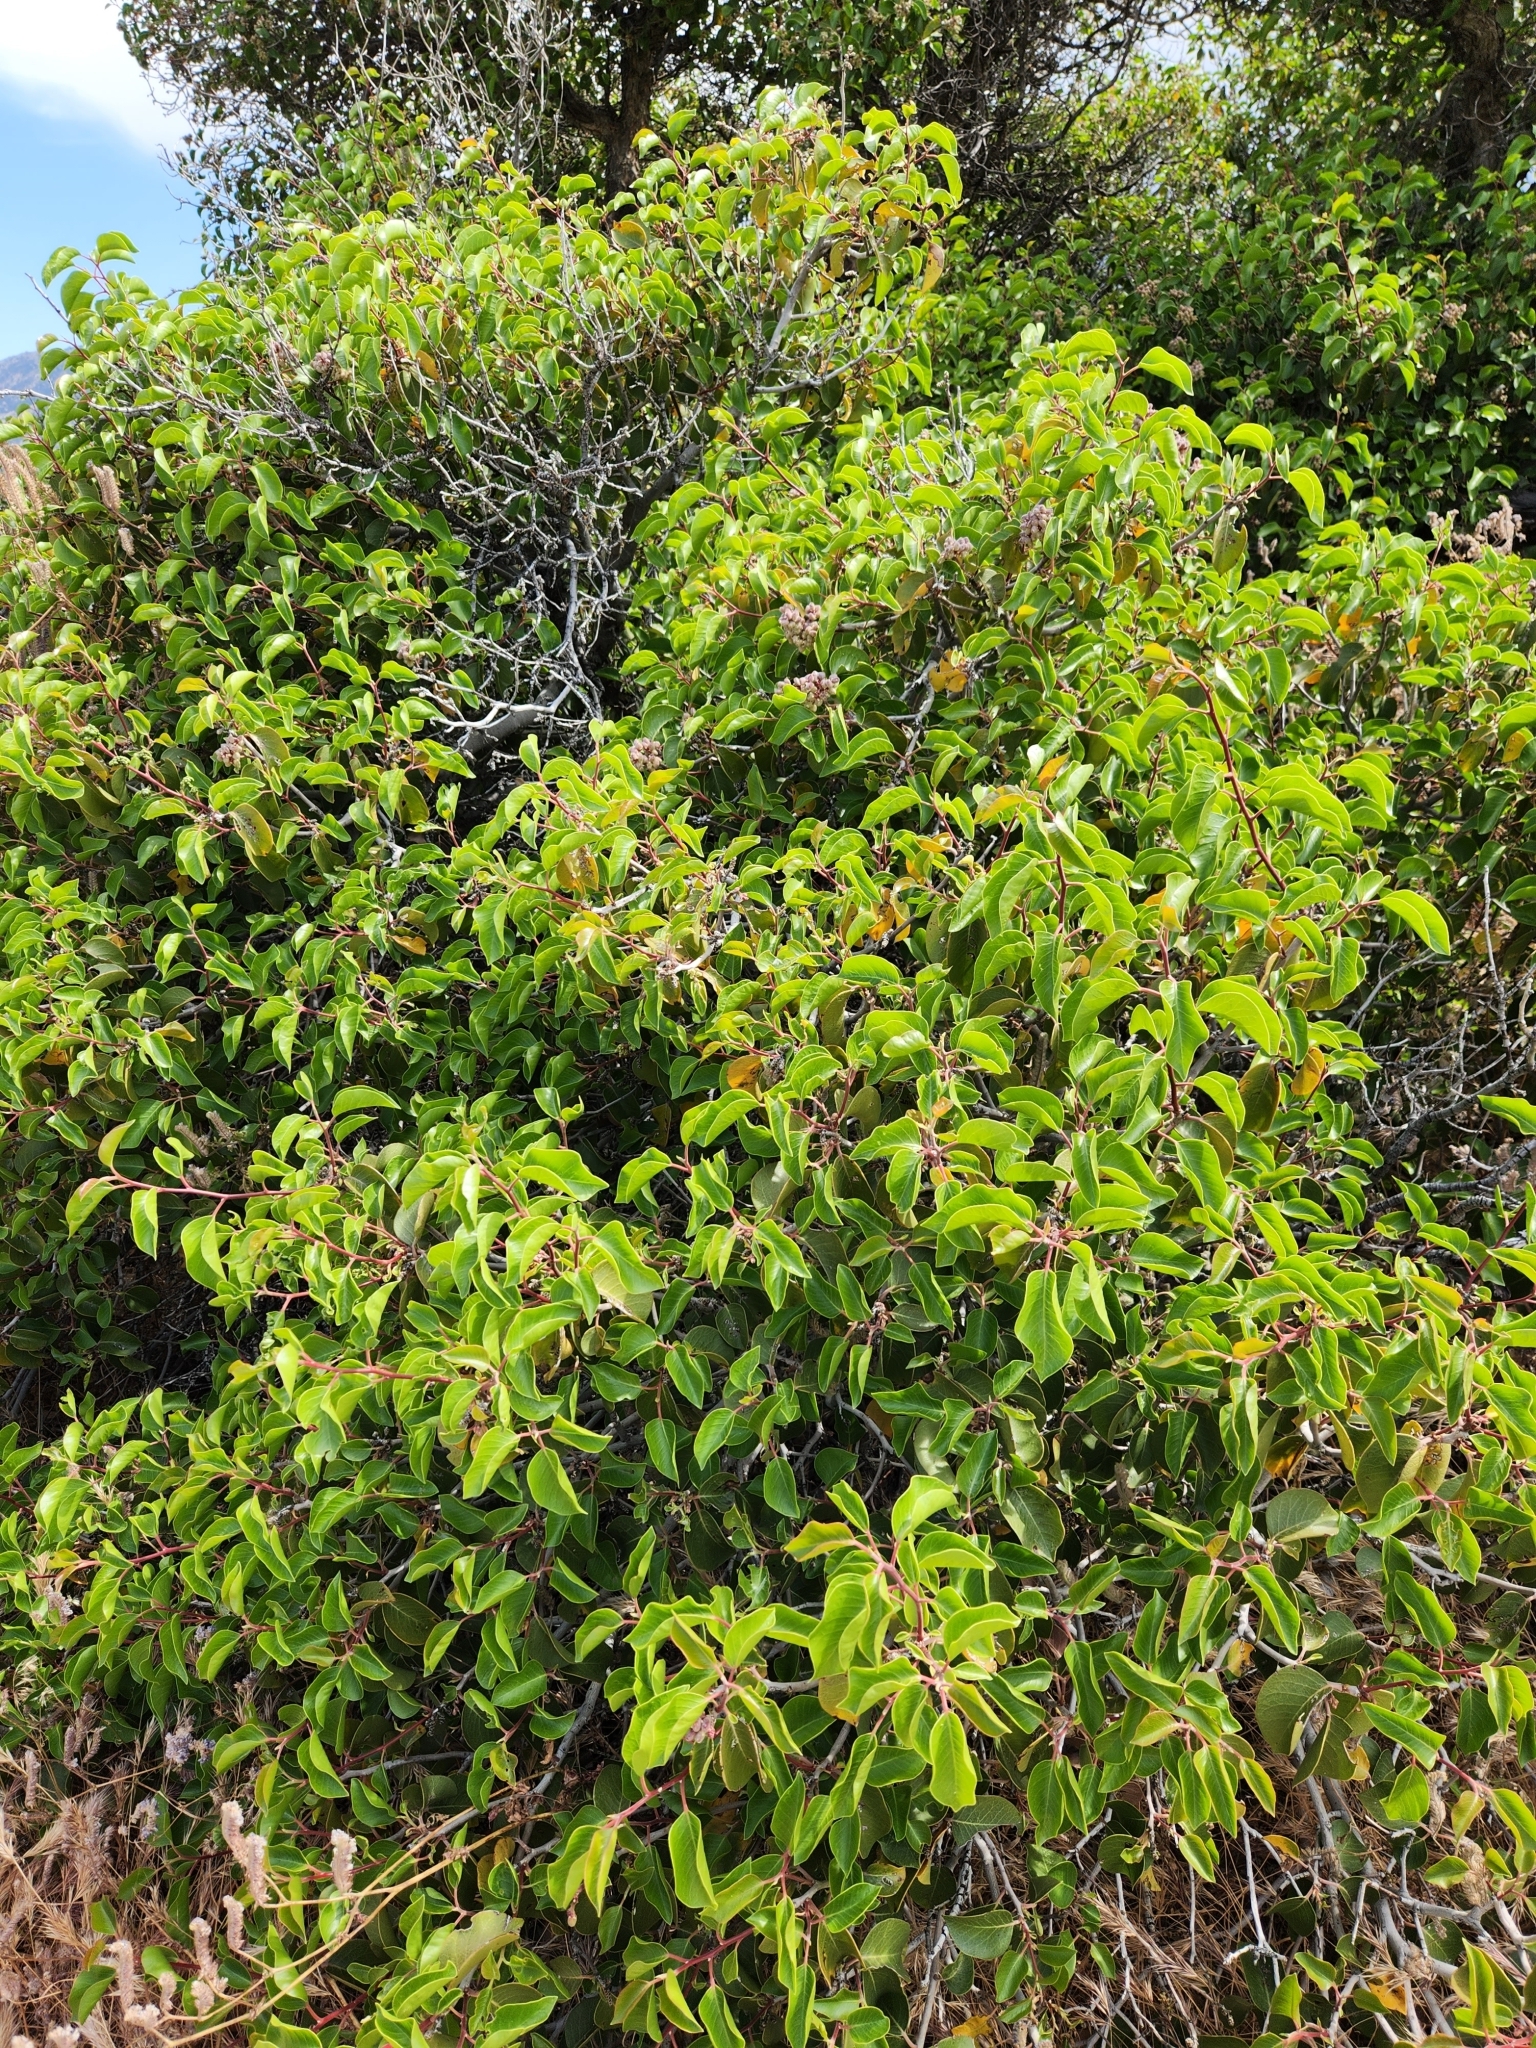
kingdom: Plantae
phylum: Tracheophyta
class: Magnoliopsida
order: Sapindales
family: Anacardiaceae
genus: Rhus
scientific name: Rhus ovata
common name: Sugar sumac
